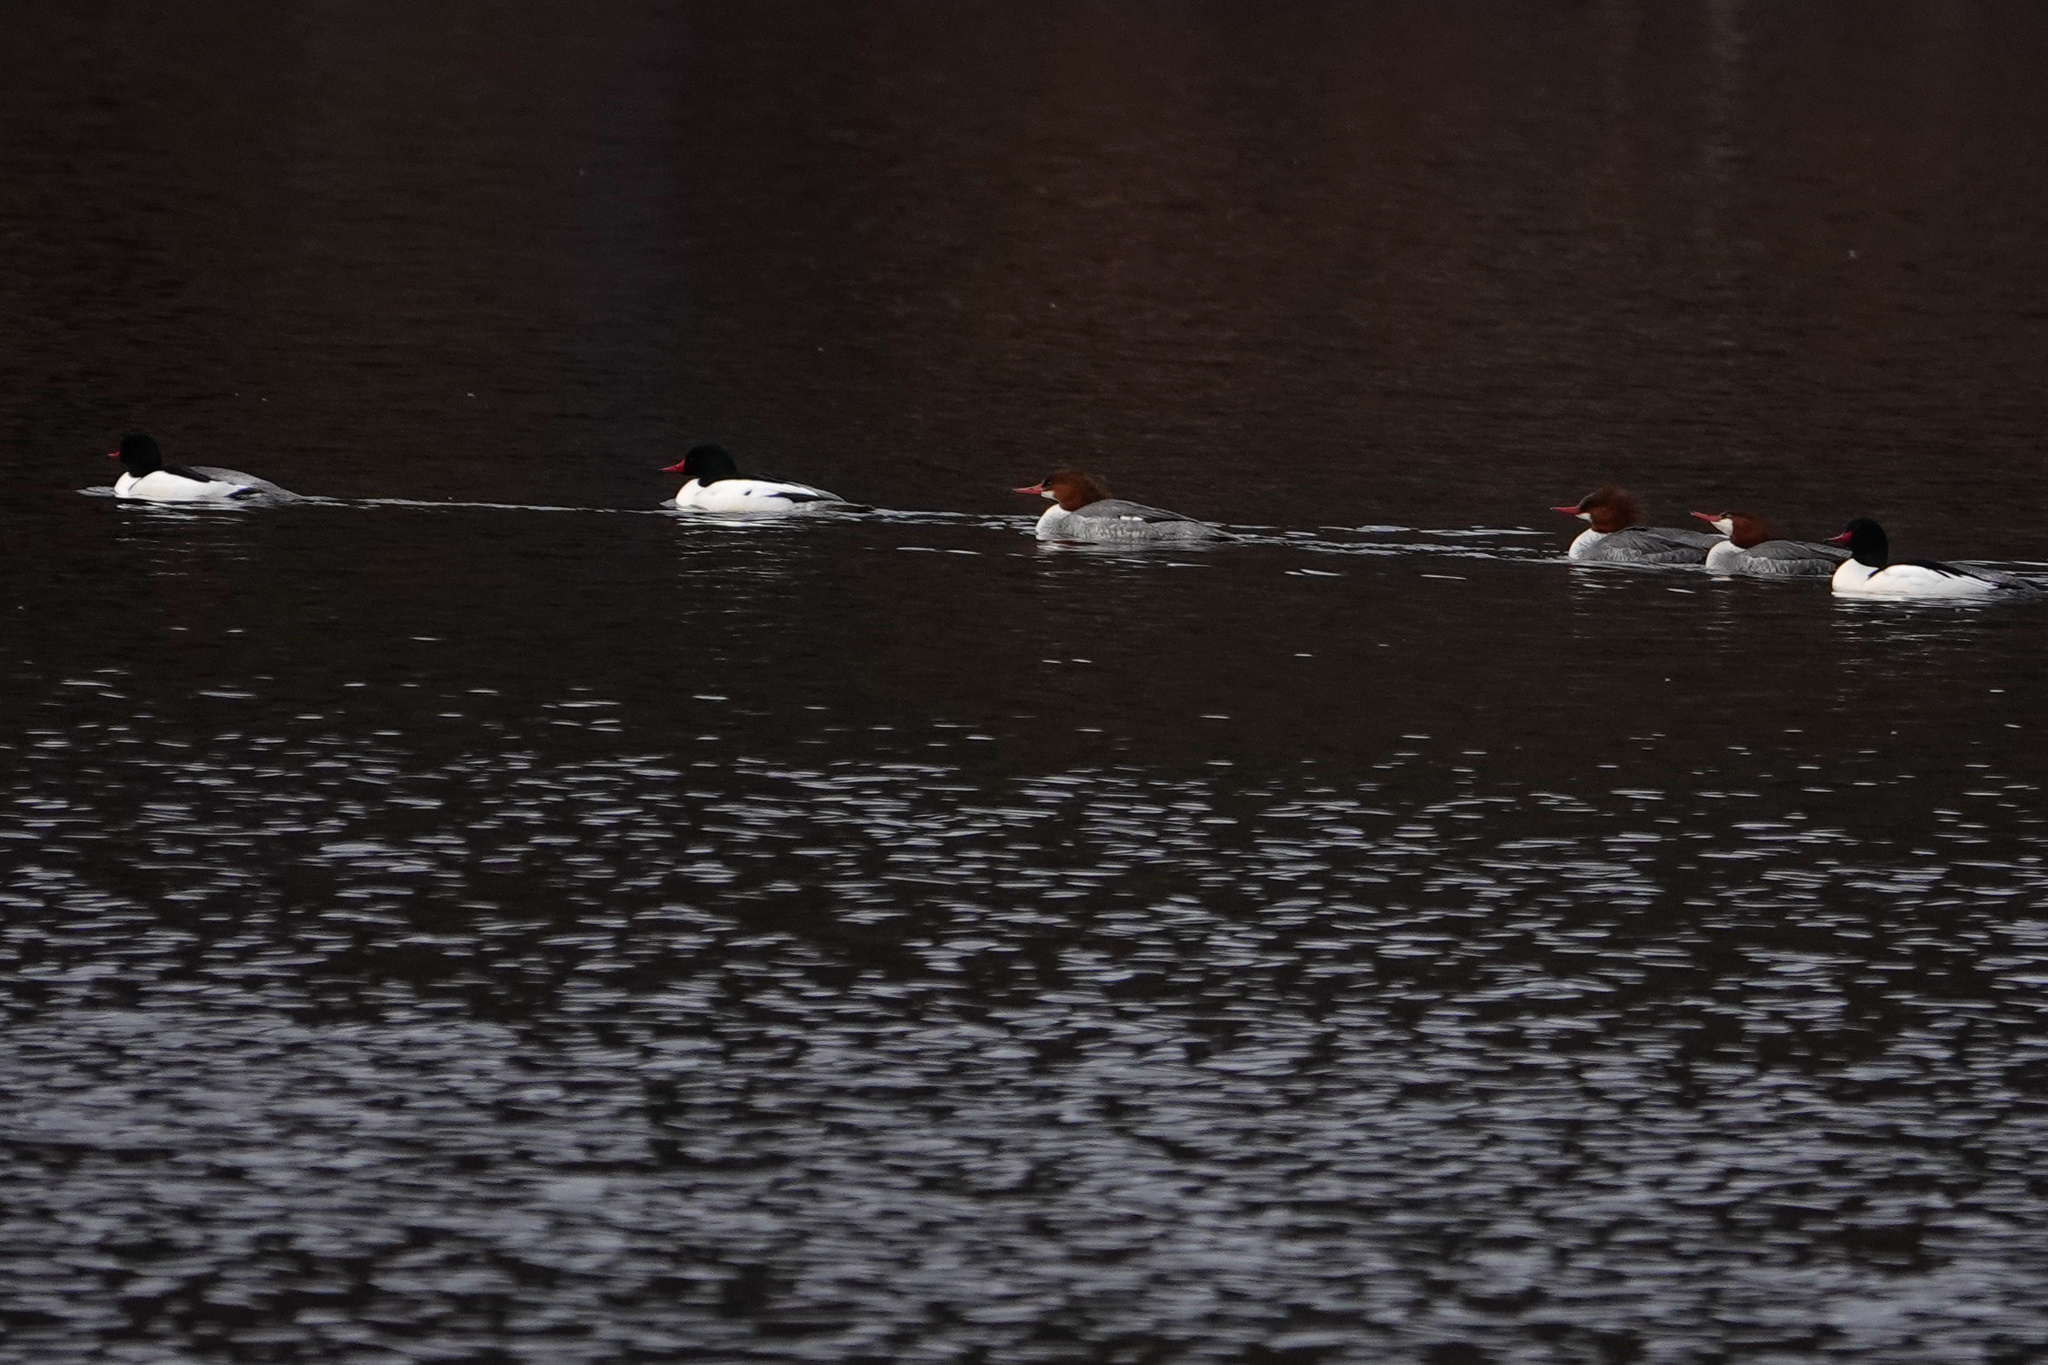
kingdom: Animalia
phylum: Chordata
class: Aves
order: Anseriformes
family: Anatidae
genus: Mergus
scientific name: Mergus merganser
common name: Common merganser
